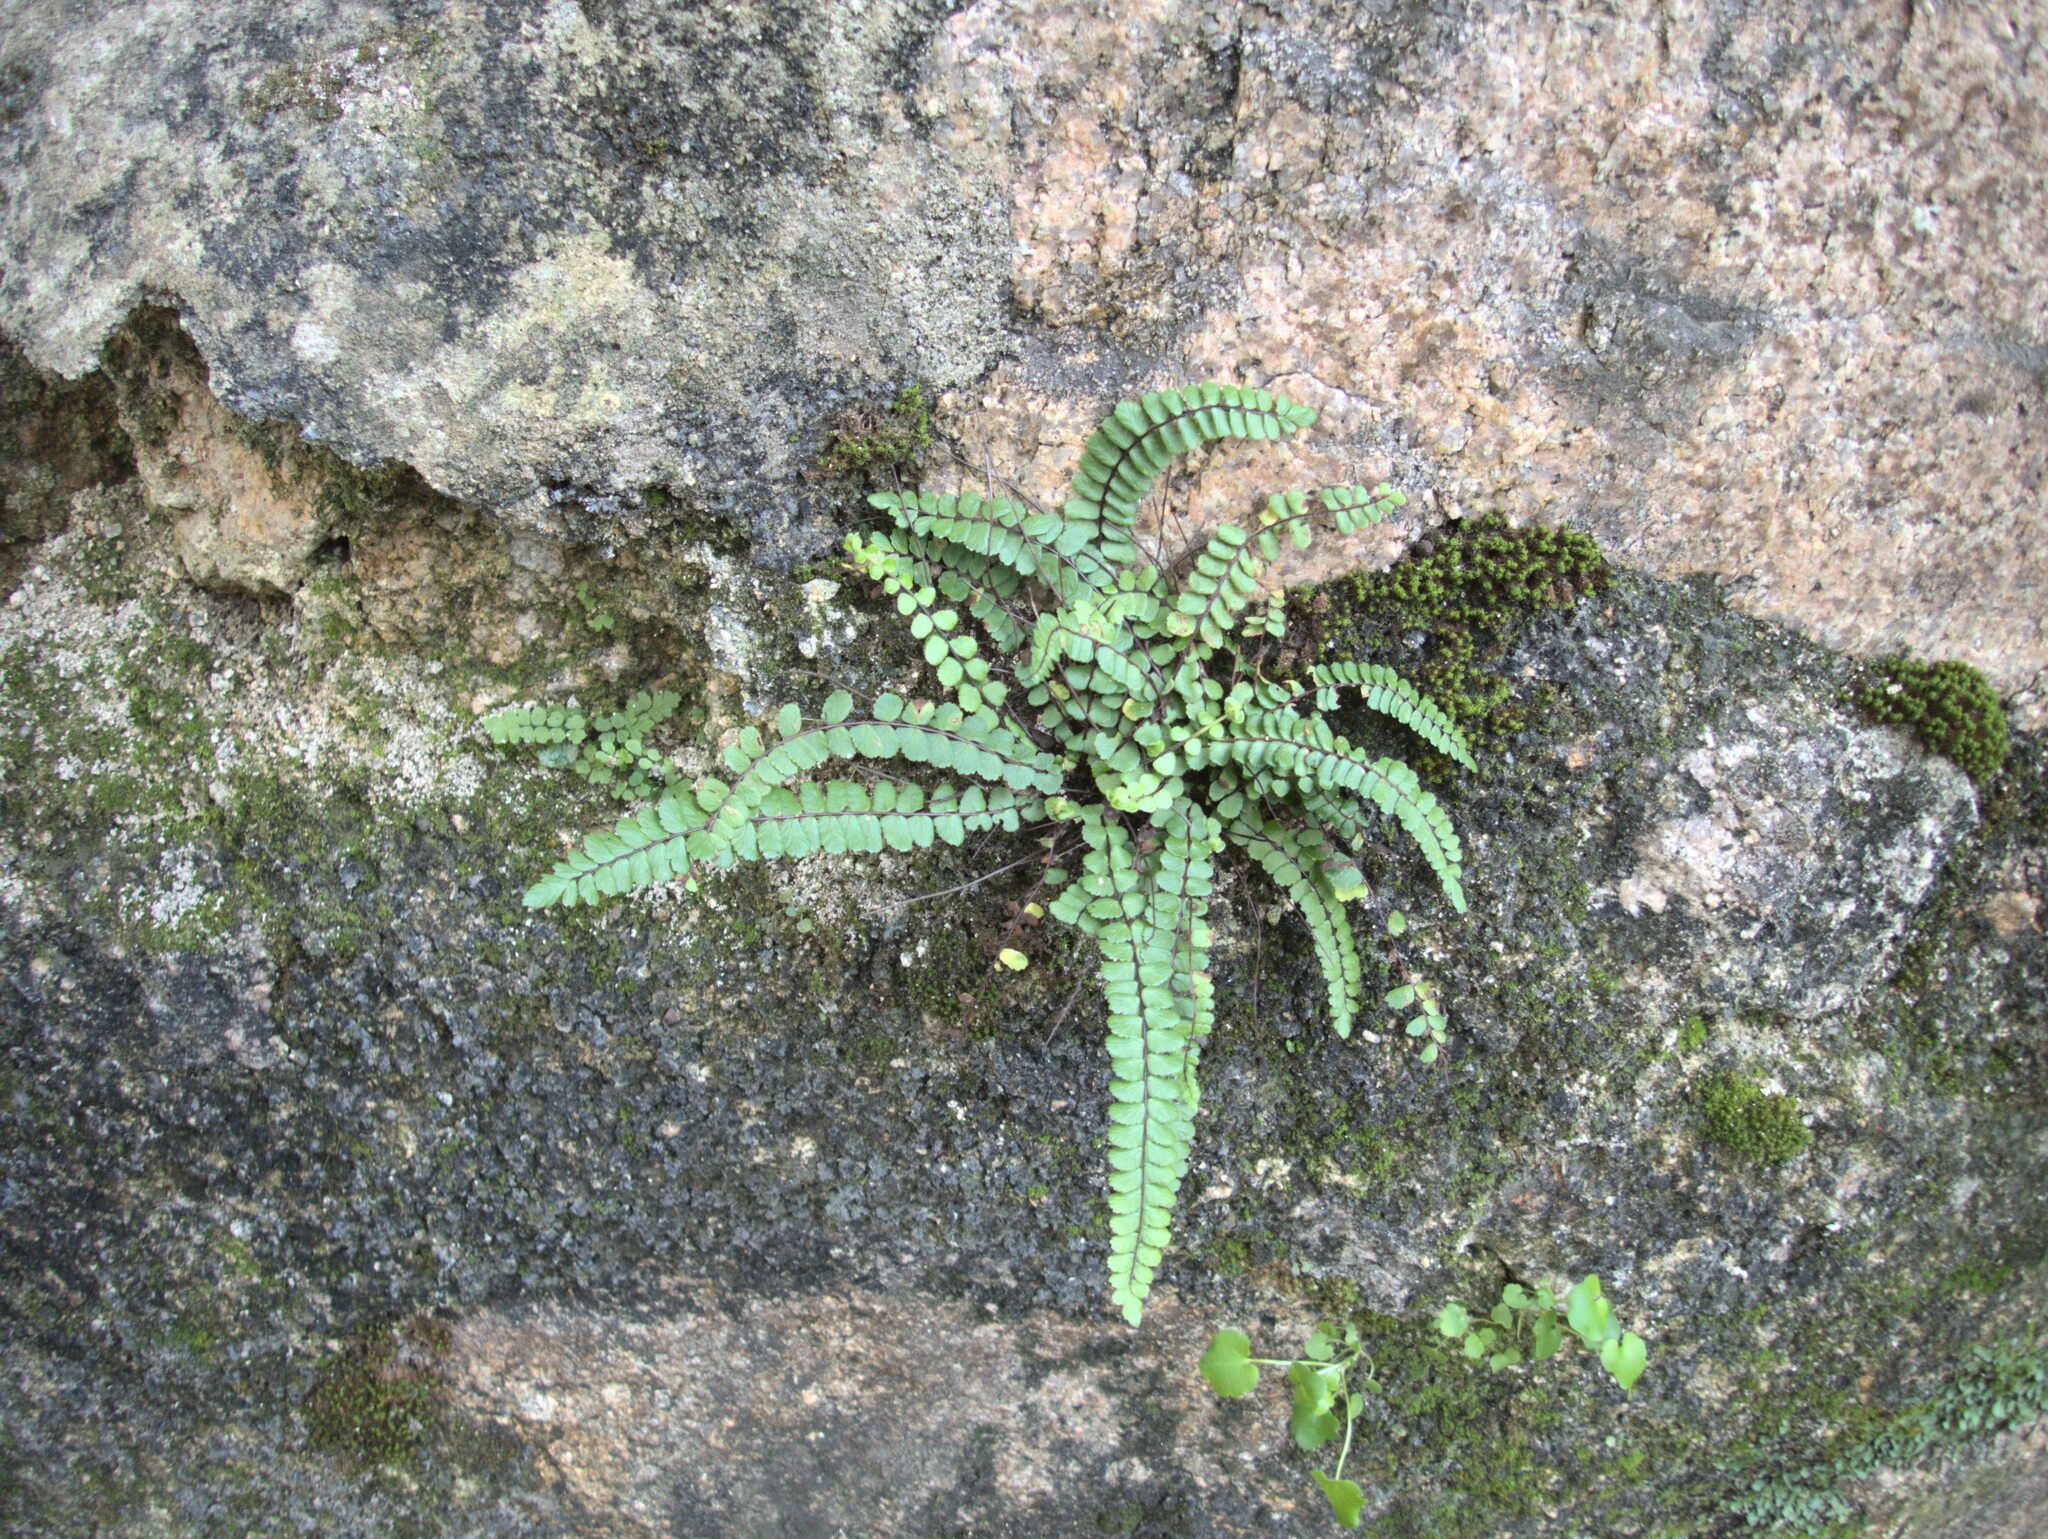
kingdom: Plantae
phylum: Tracheophyta
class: Polypodiopsida
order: Polypodiales
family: Aspleniaceae
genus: Asplenium
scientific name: Asplenium trichomanes
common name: Maidenhair spleenwort
